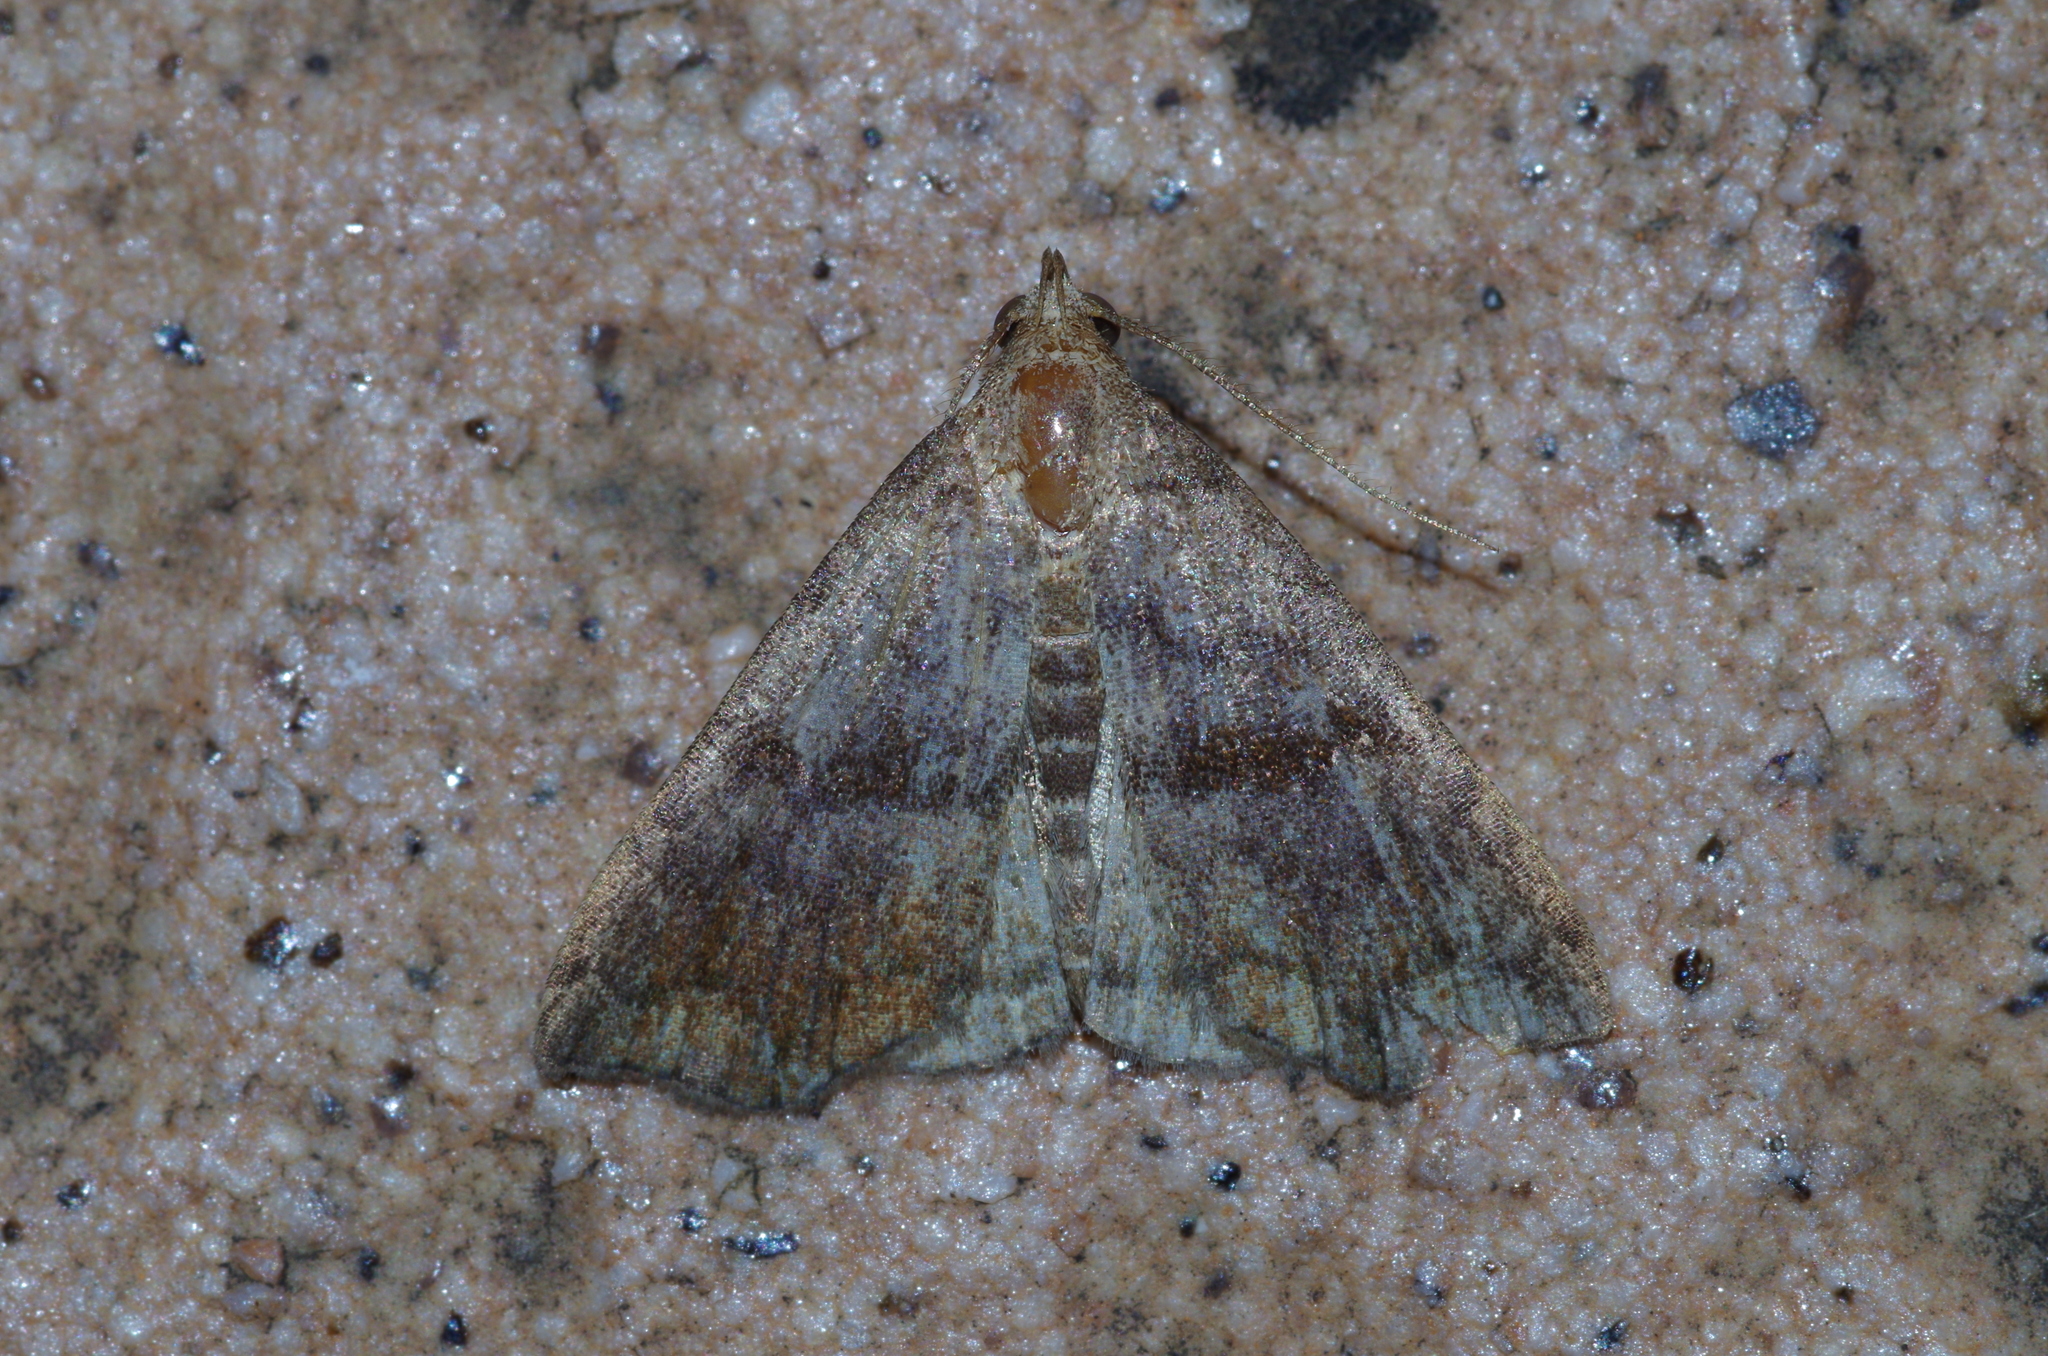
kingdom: Animalia
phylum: Arthropoda
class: Insecta
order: Lepidoptera
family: Erebidae
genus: Polypogon
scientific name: Polypogon Hipoepa fractalis
